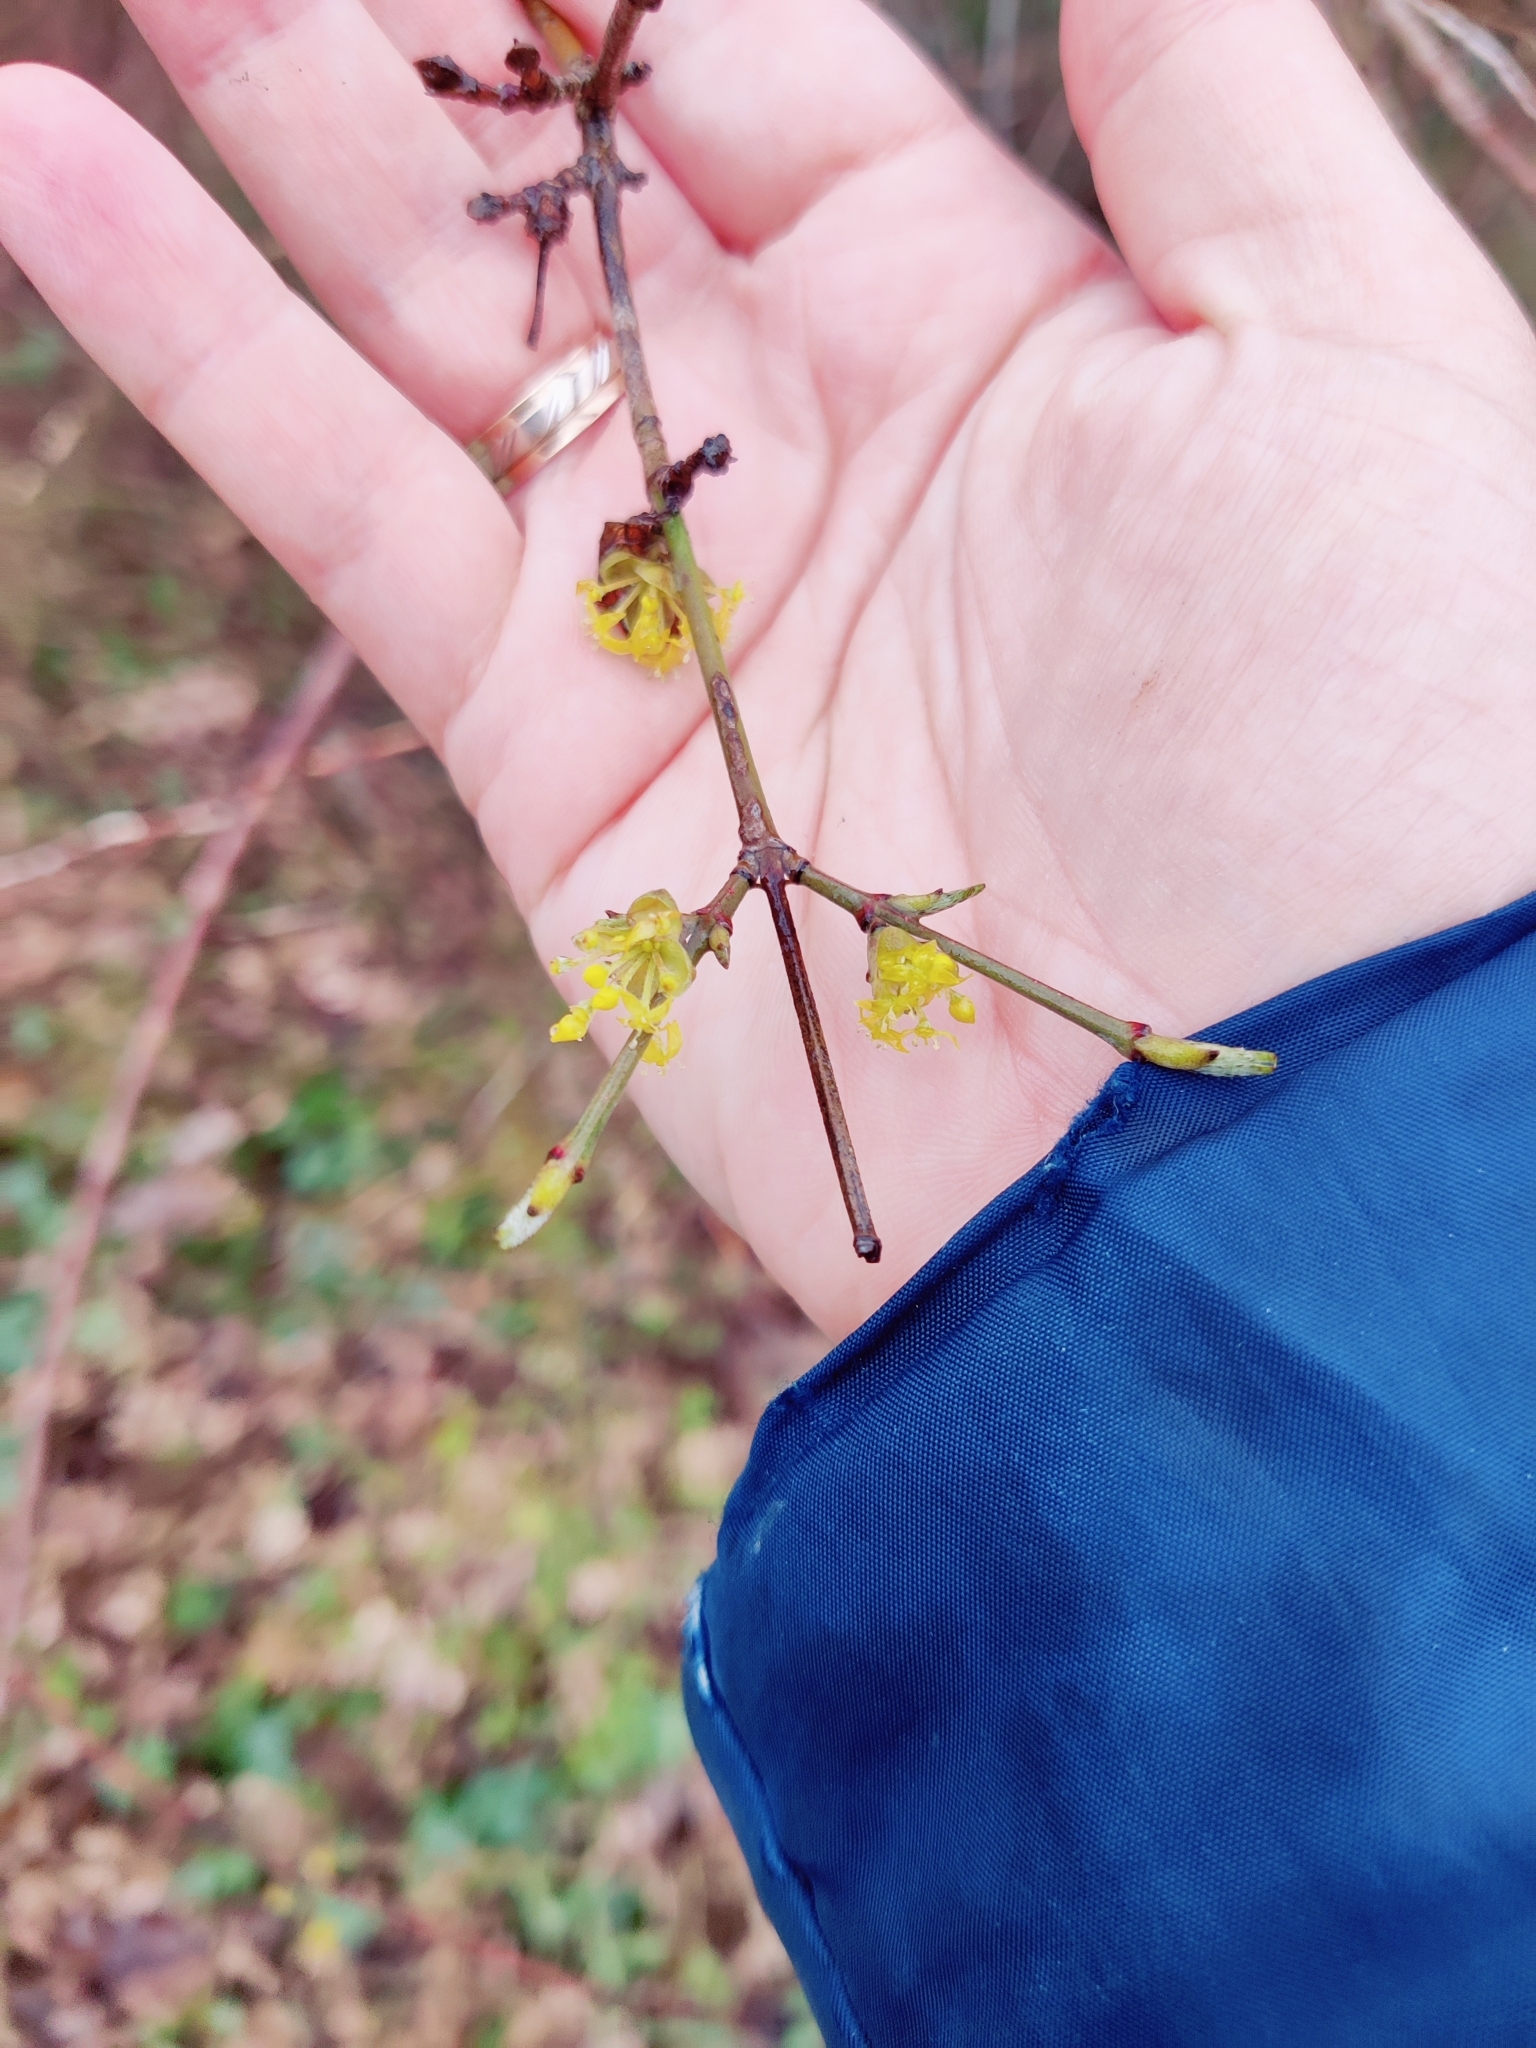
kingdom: Plantae
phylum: Tracheophyta
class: Magnoliopsida
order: Cornales
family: Cornaceae
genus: Cornus
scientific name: Cornus mas
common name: Cornelian-cherry
